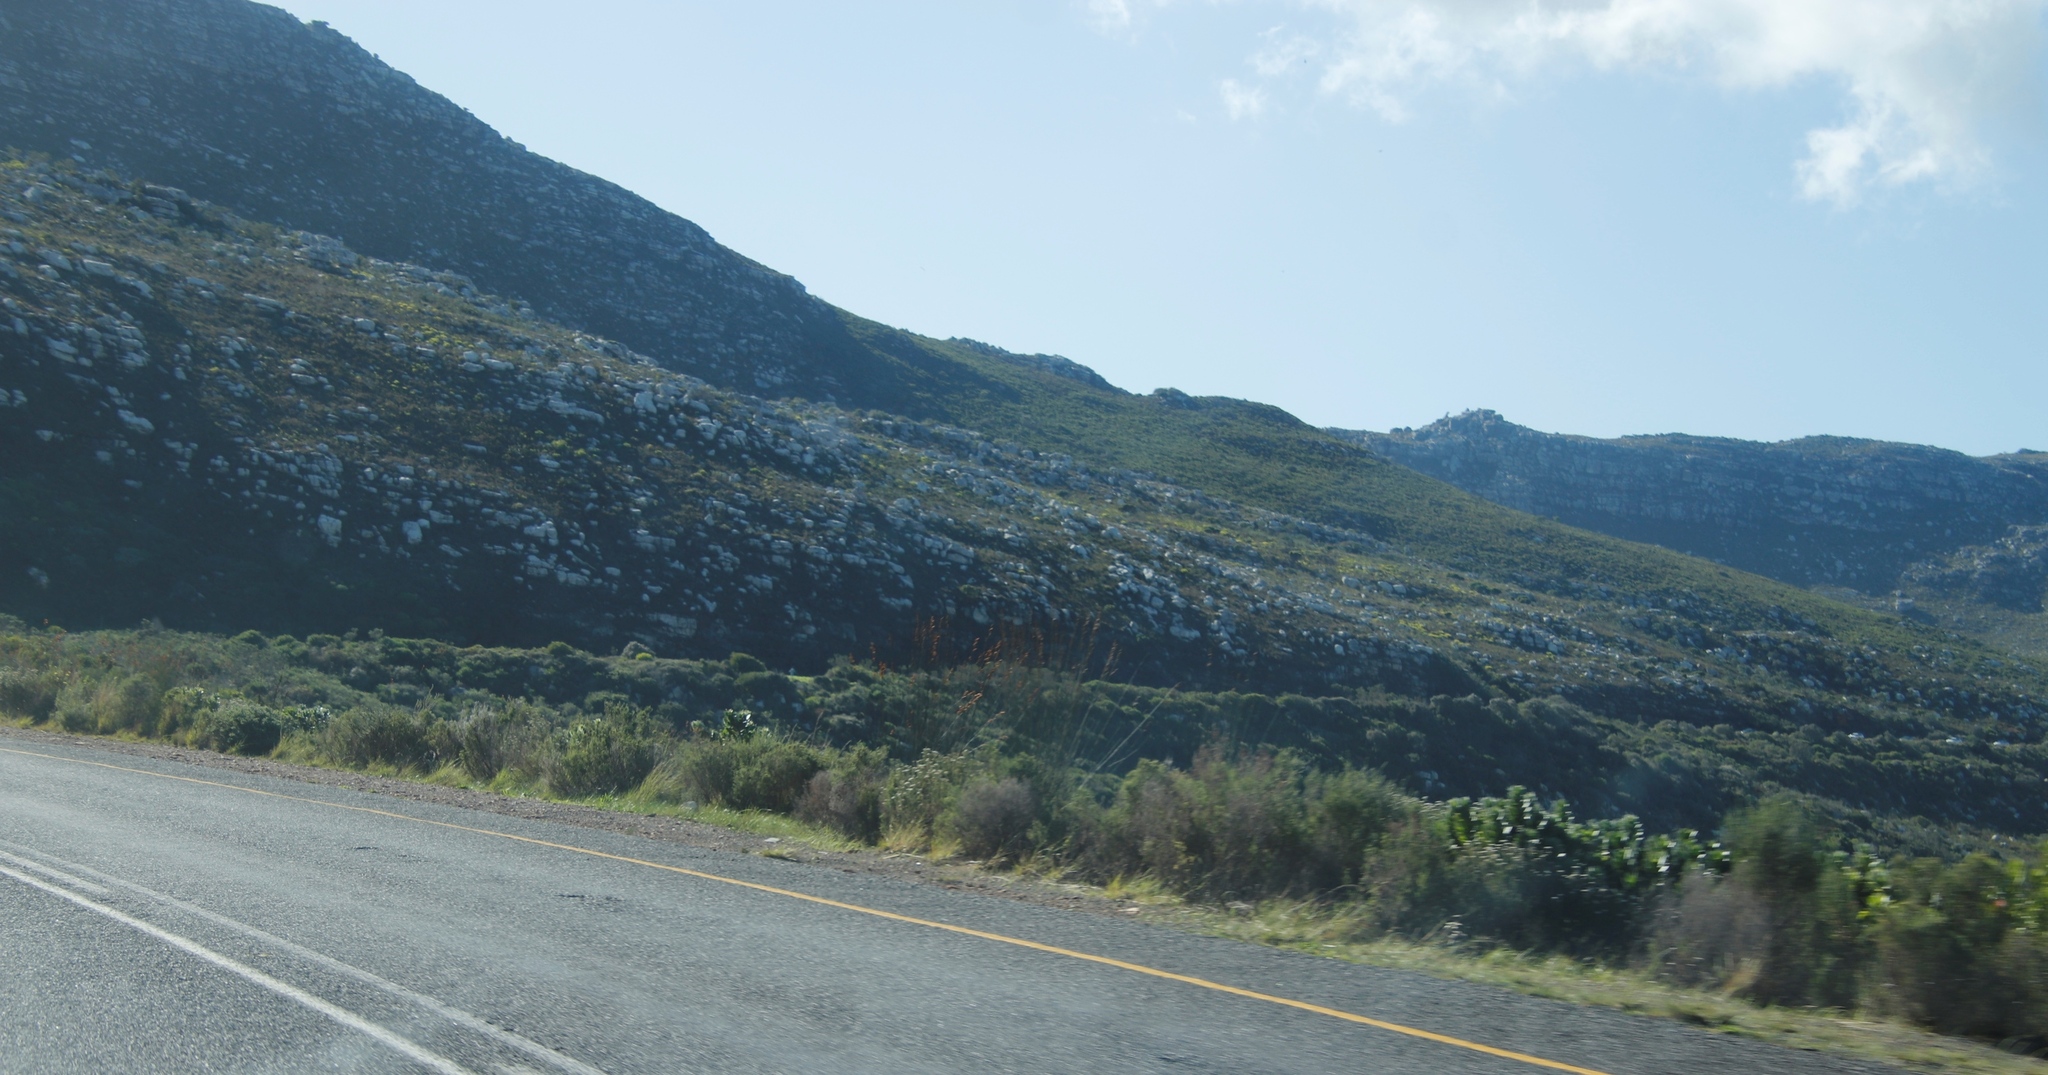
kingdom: Plantae
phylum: Tracheophyta
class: Liliopsida
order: Poales
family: Restionaceae
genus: Thamnochortus
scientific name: Thamnochortus insignis
